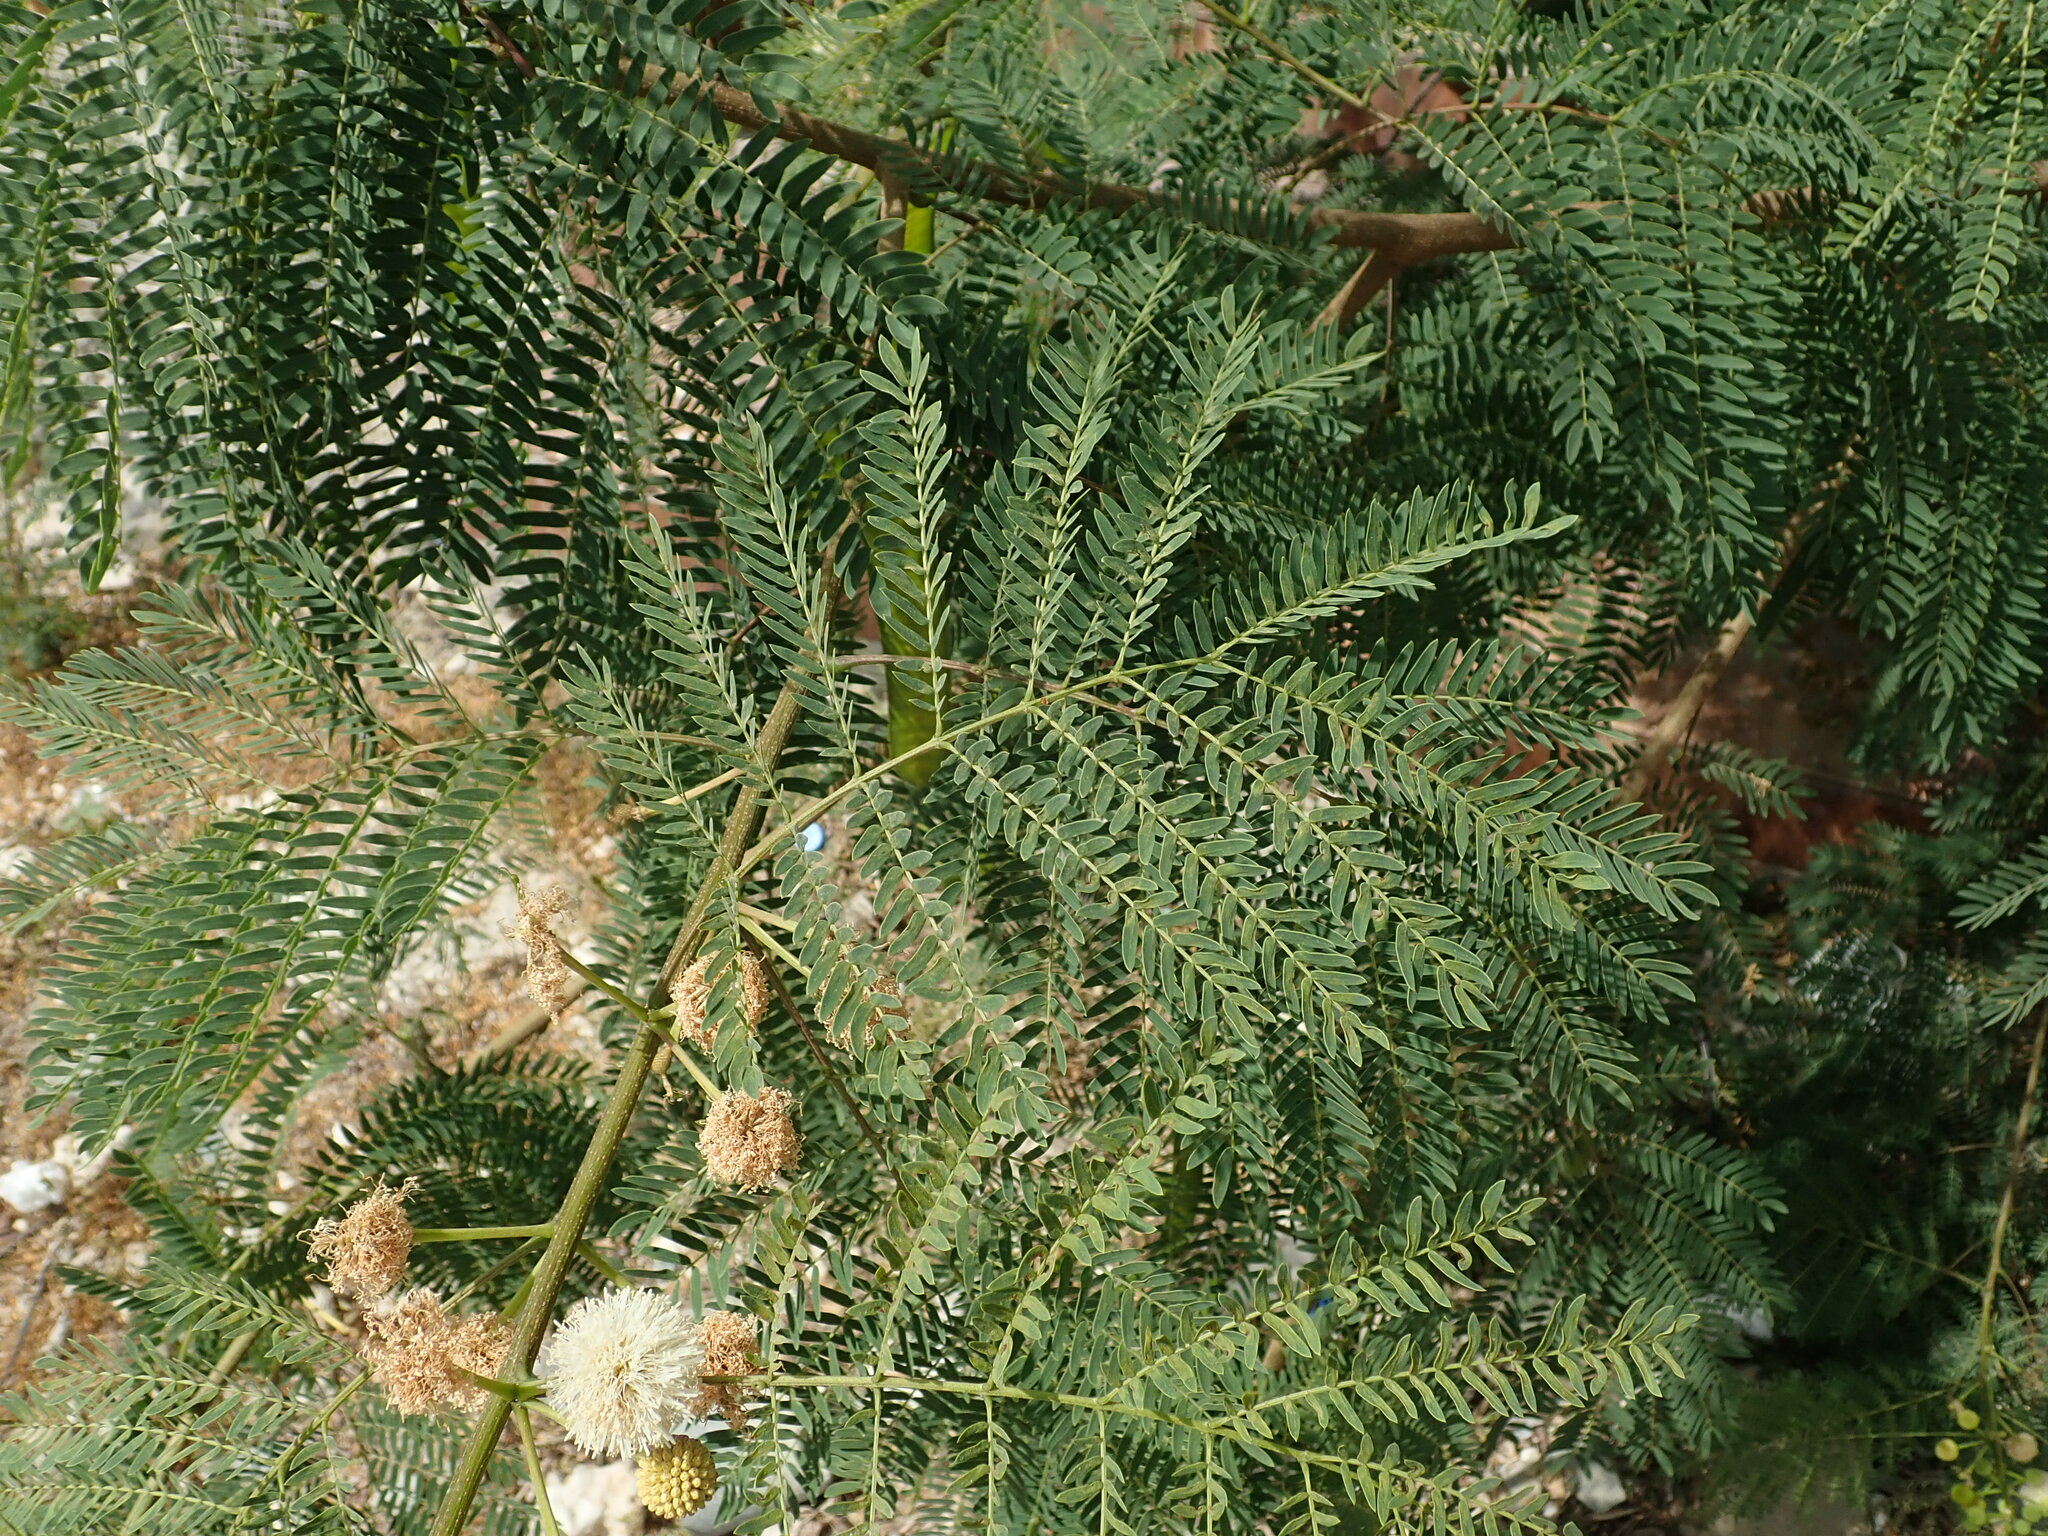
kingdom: Plantae
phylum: Tracheophyta
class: Magnoliopsida
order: Fabales
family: Fabaceae
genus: Leucaena
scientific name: Leucaena leucocephala
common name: White leadtree
